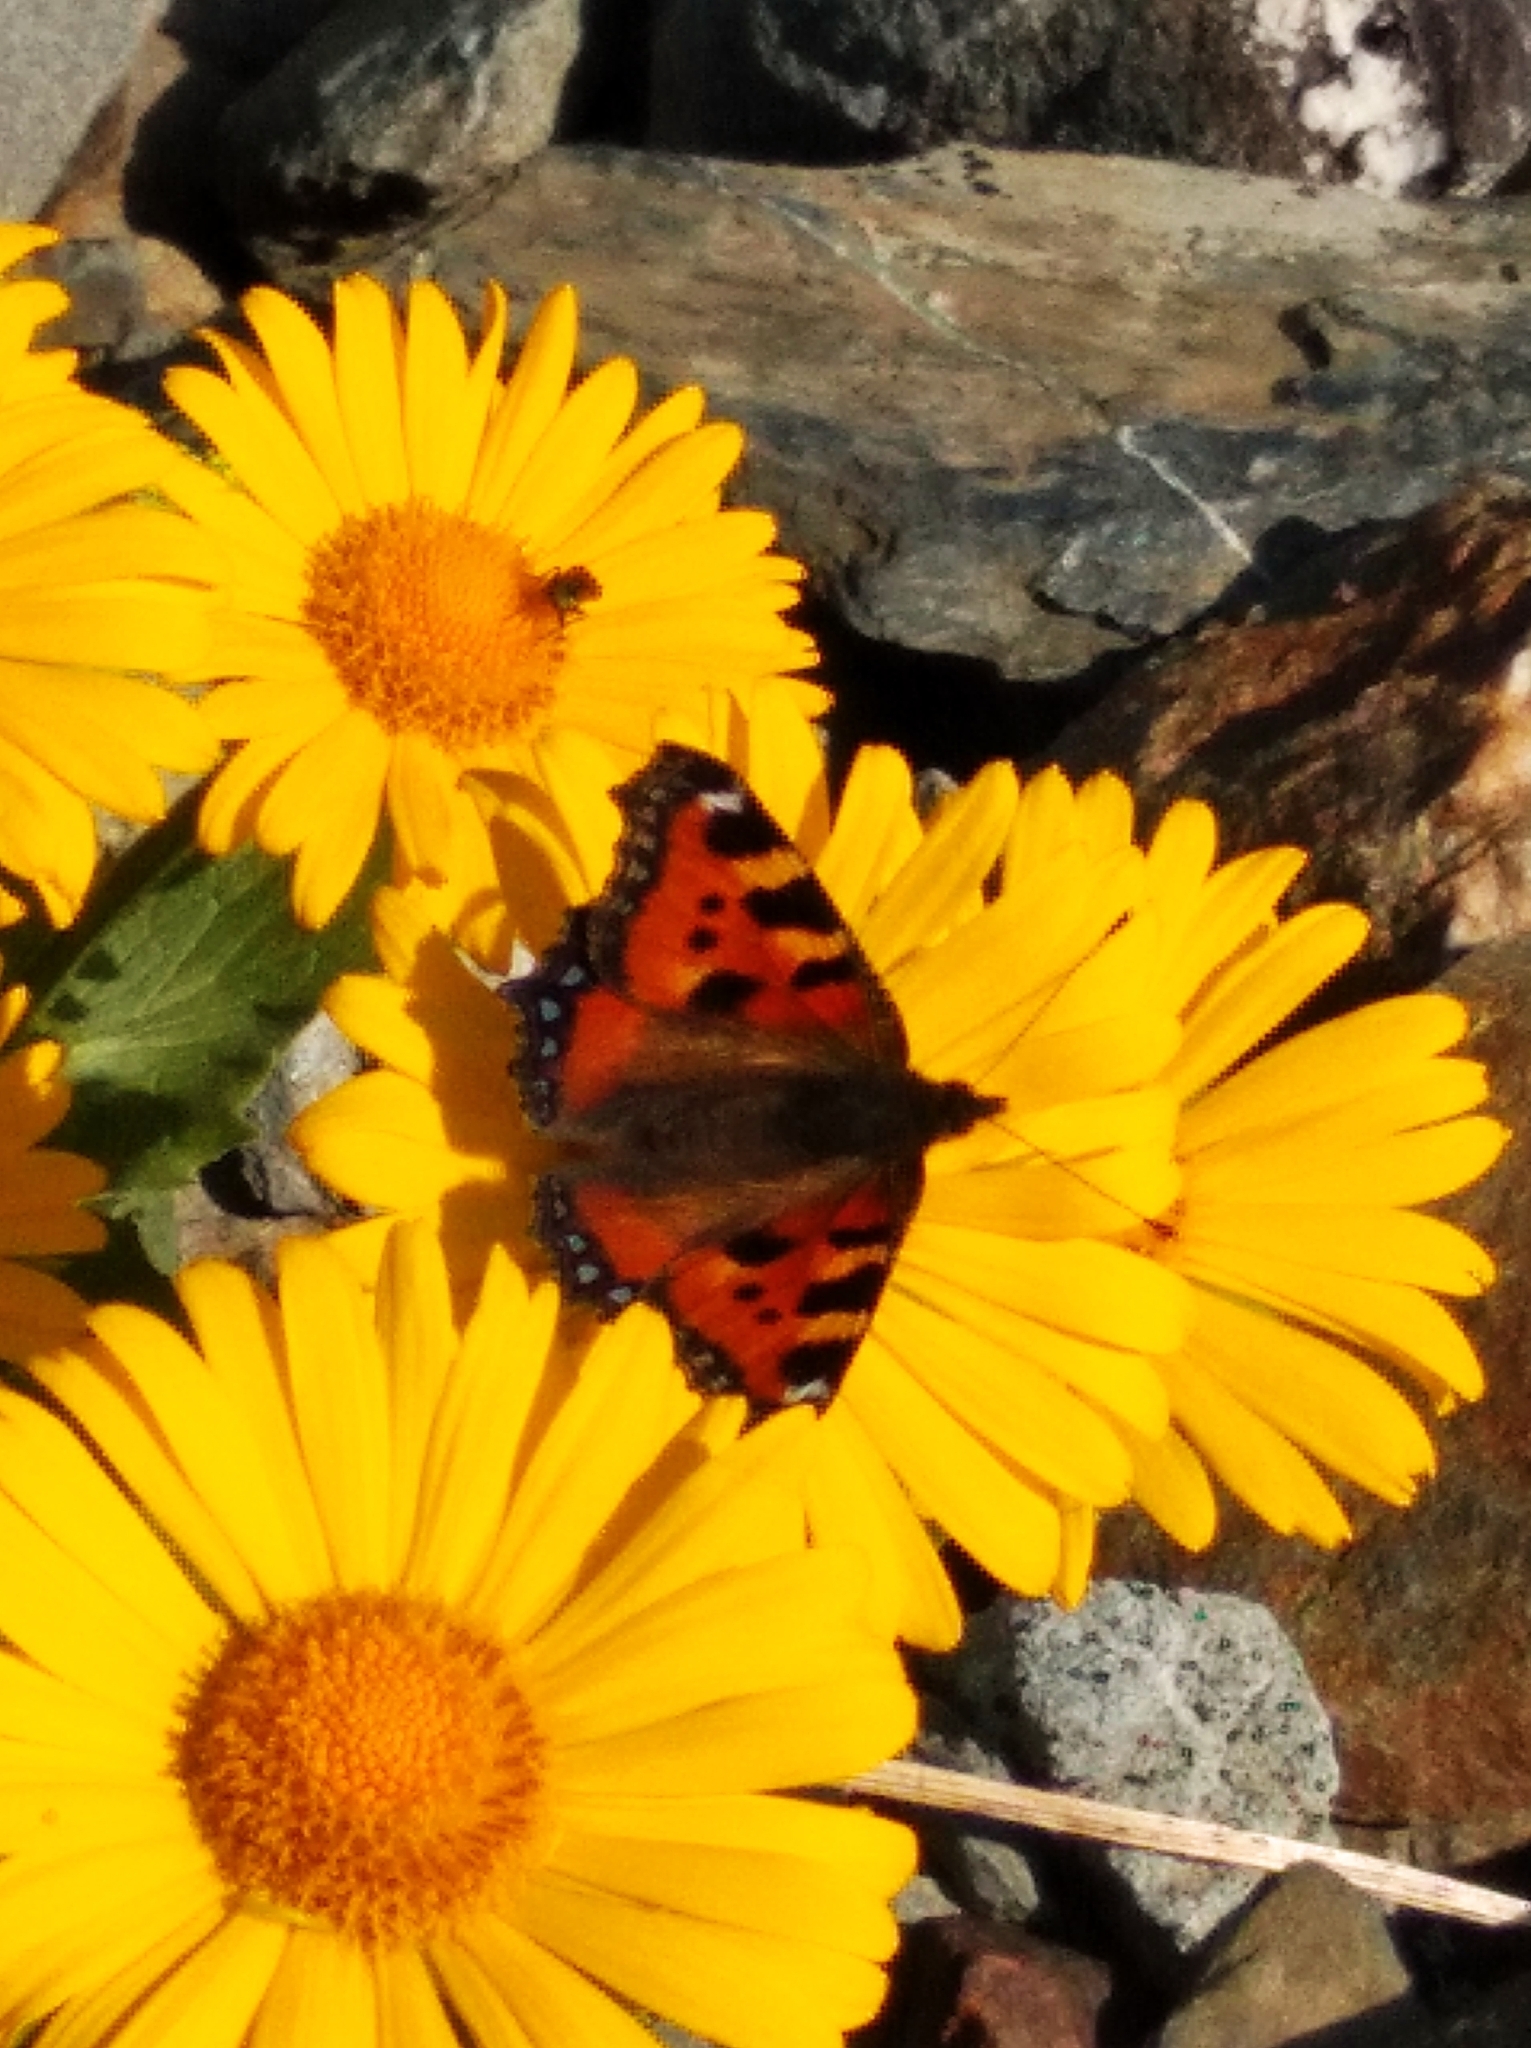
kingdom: Animalia
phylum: Arthropoda
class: Insecta
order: Lepidoptera
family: Nymphalidae
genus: Aglais
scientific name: Aglais urticae
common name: Small tortoiseshell
